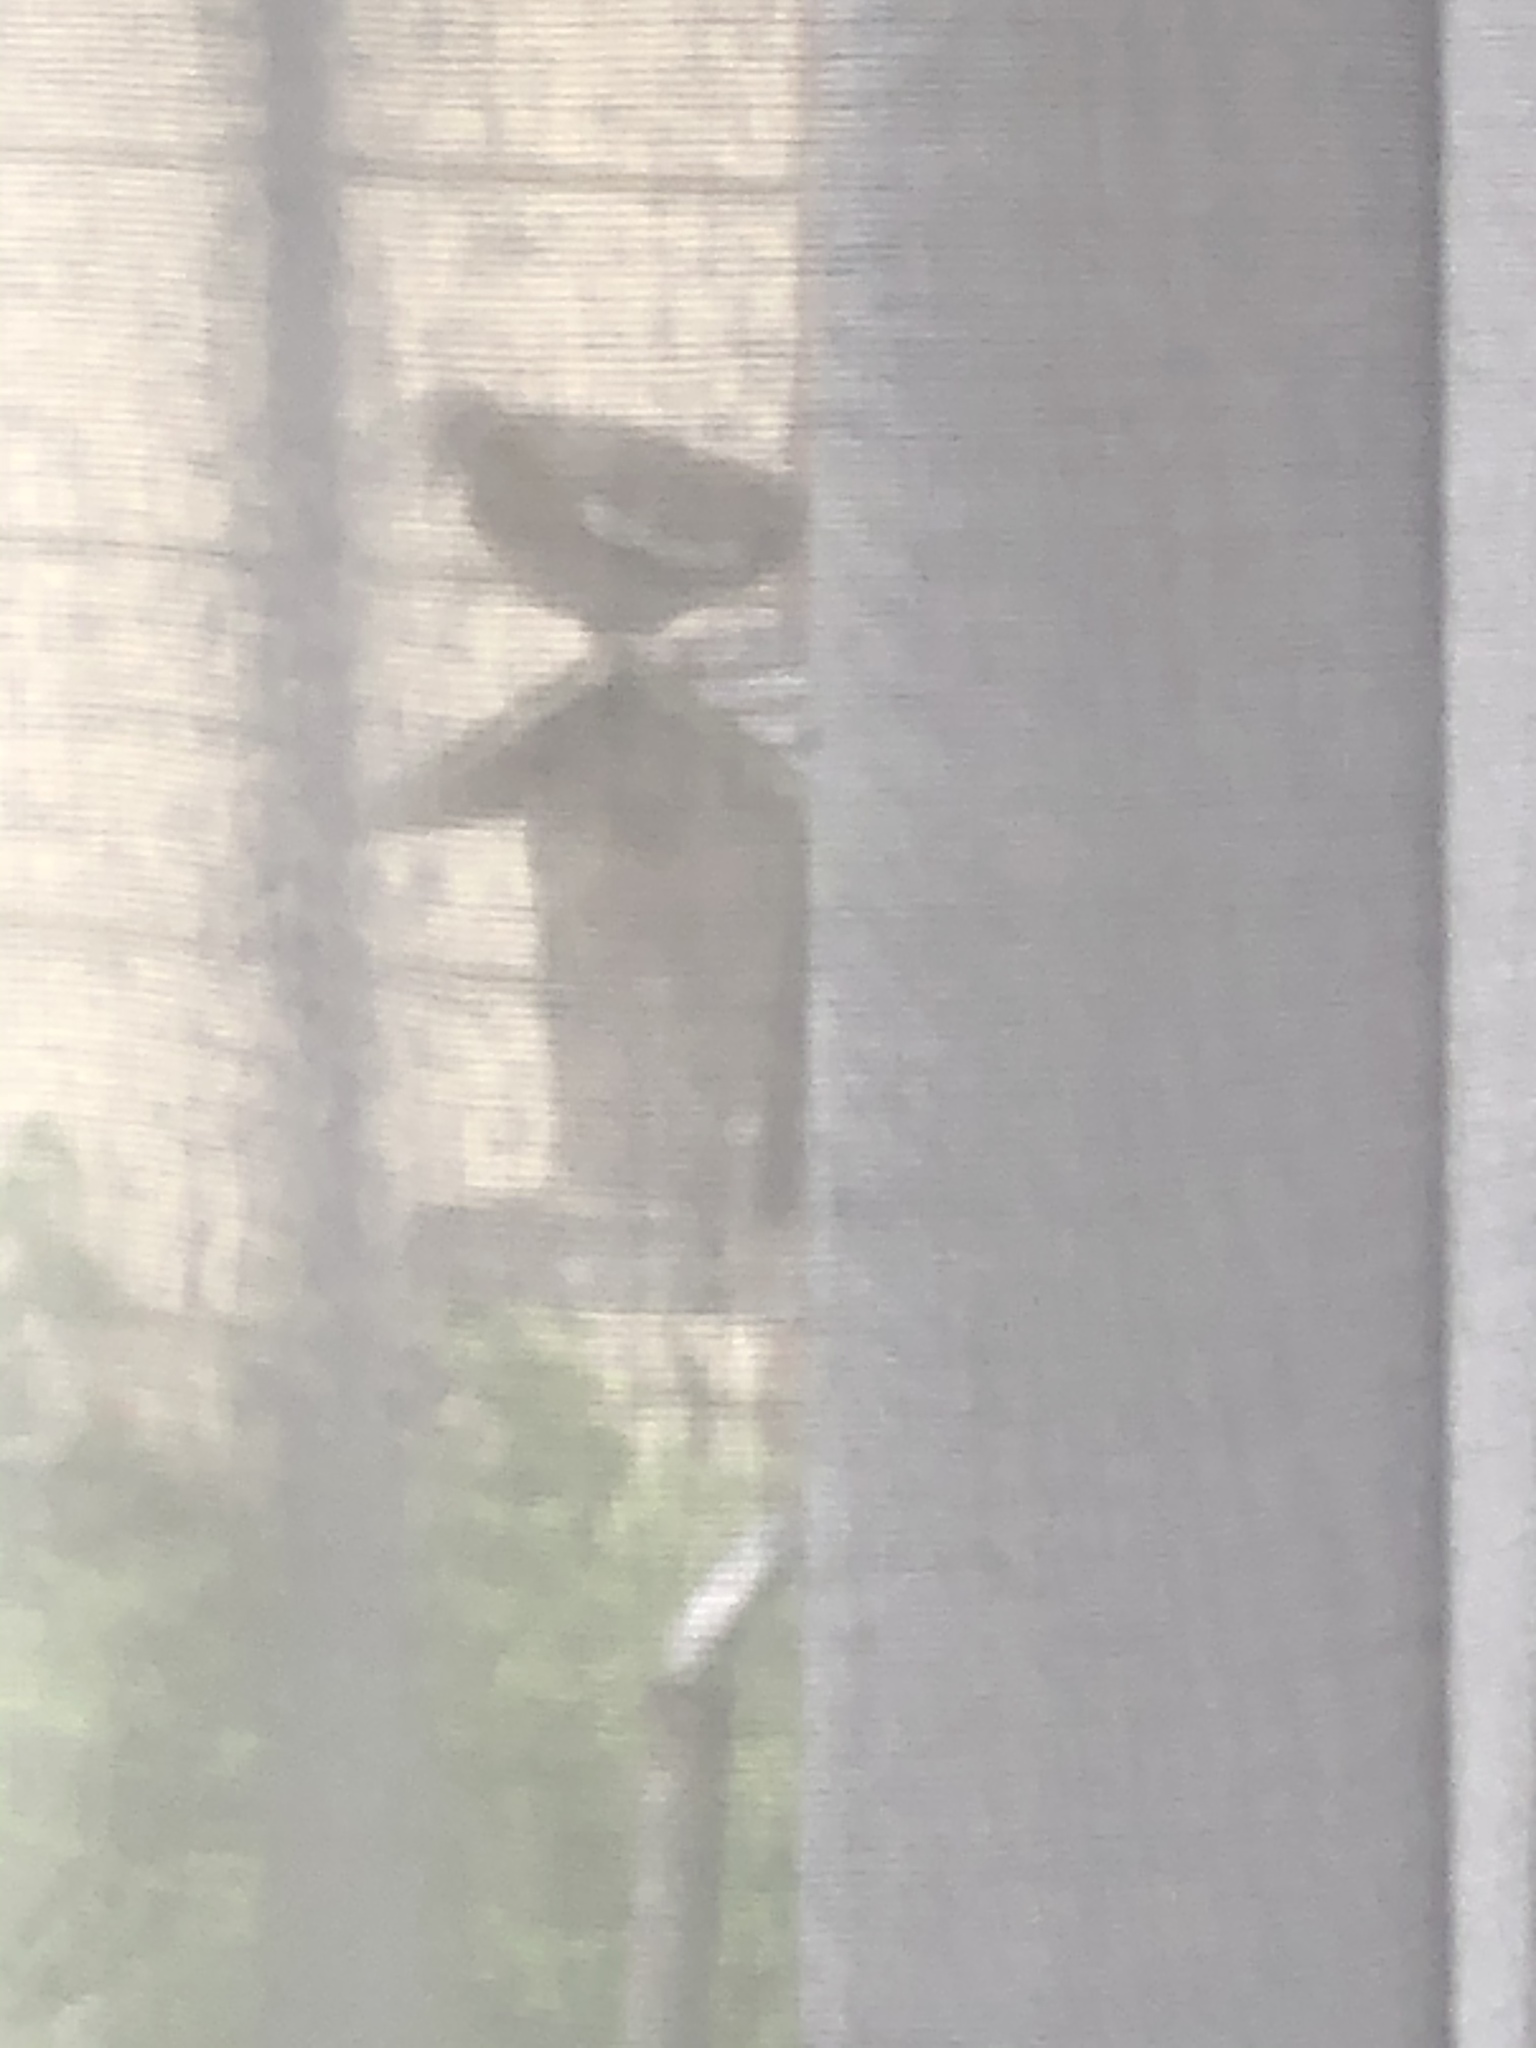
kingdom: Animalia
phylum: Chordata
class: Aves
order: Columbiformes
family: Columbidae
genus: Zenaida
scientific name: Zenaida asiatica
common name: White-winged dove
